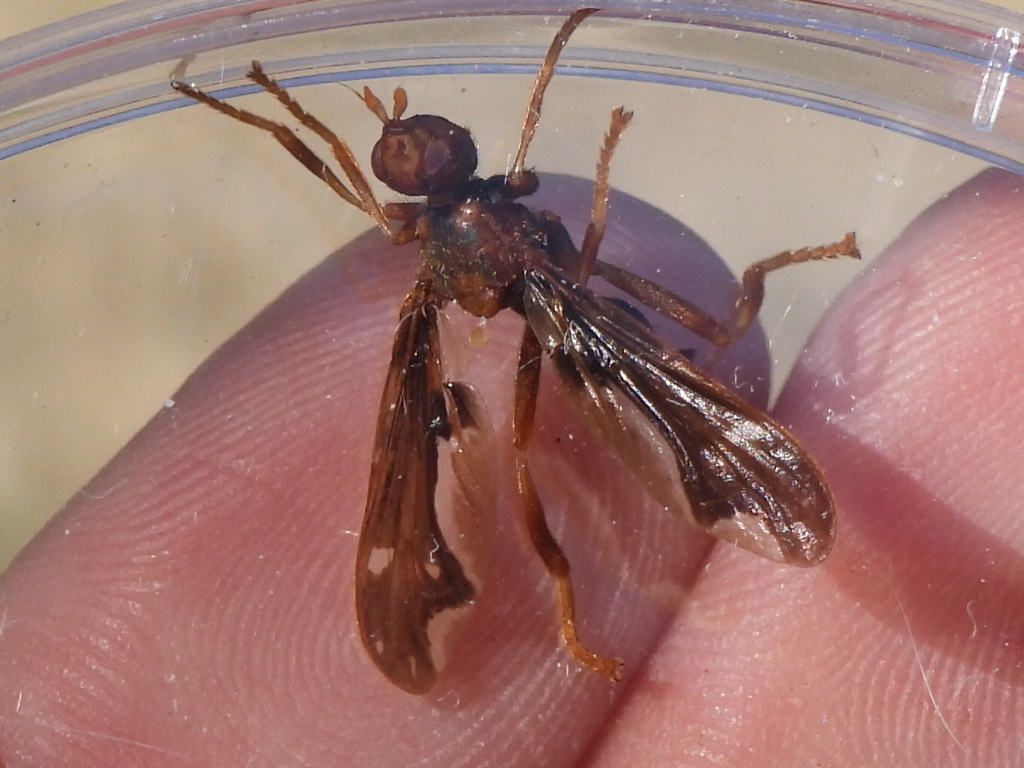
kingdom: Animalia
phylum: Arthropoda
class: Insecta
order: Diptera
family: Pyrgotidae
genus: Pyrgota
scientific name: Pyrgota undata
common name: Waved light fly
